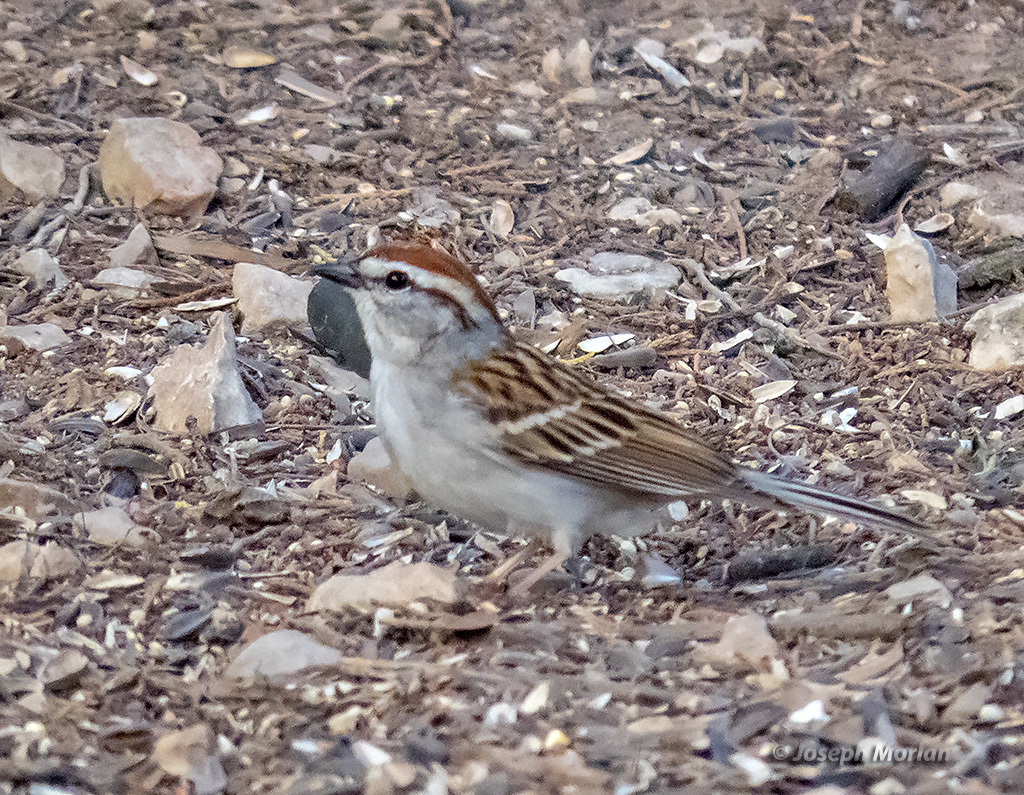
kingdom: Animalia
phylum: Chordata
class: Aves
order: Passeriformes
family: Passerellidae
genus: Spizella
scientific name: Spizella passerina
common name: Chipping sparrow
